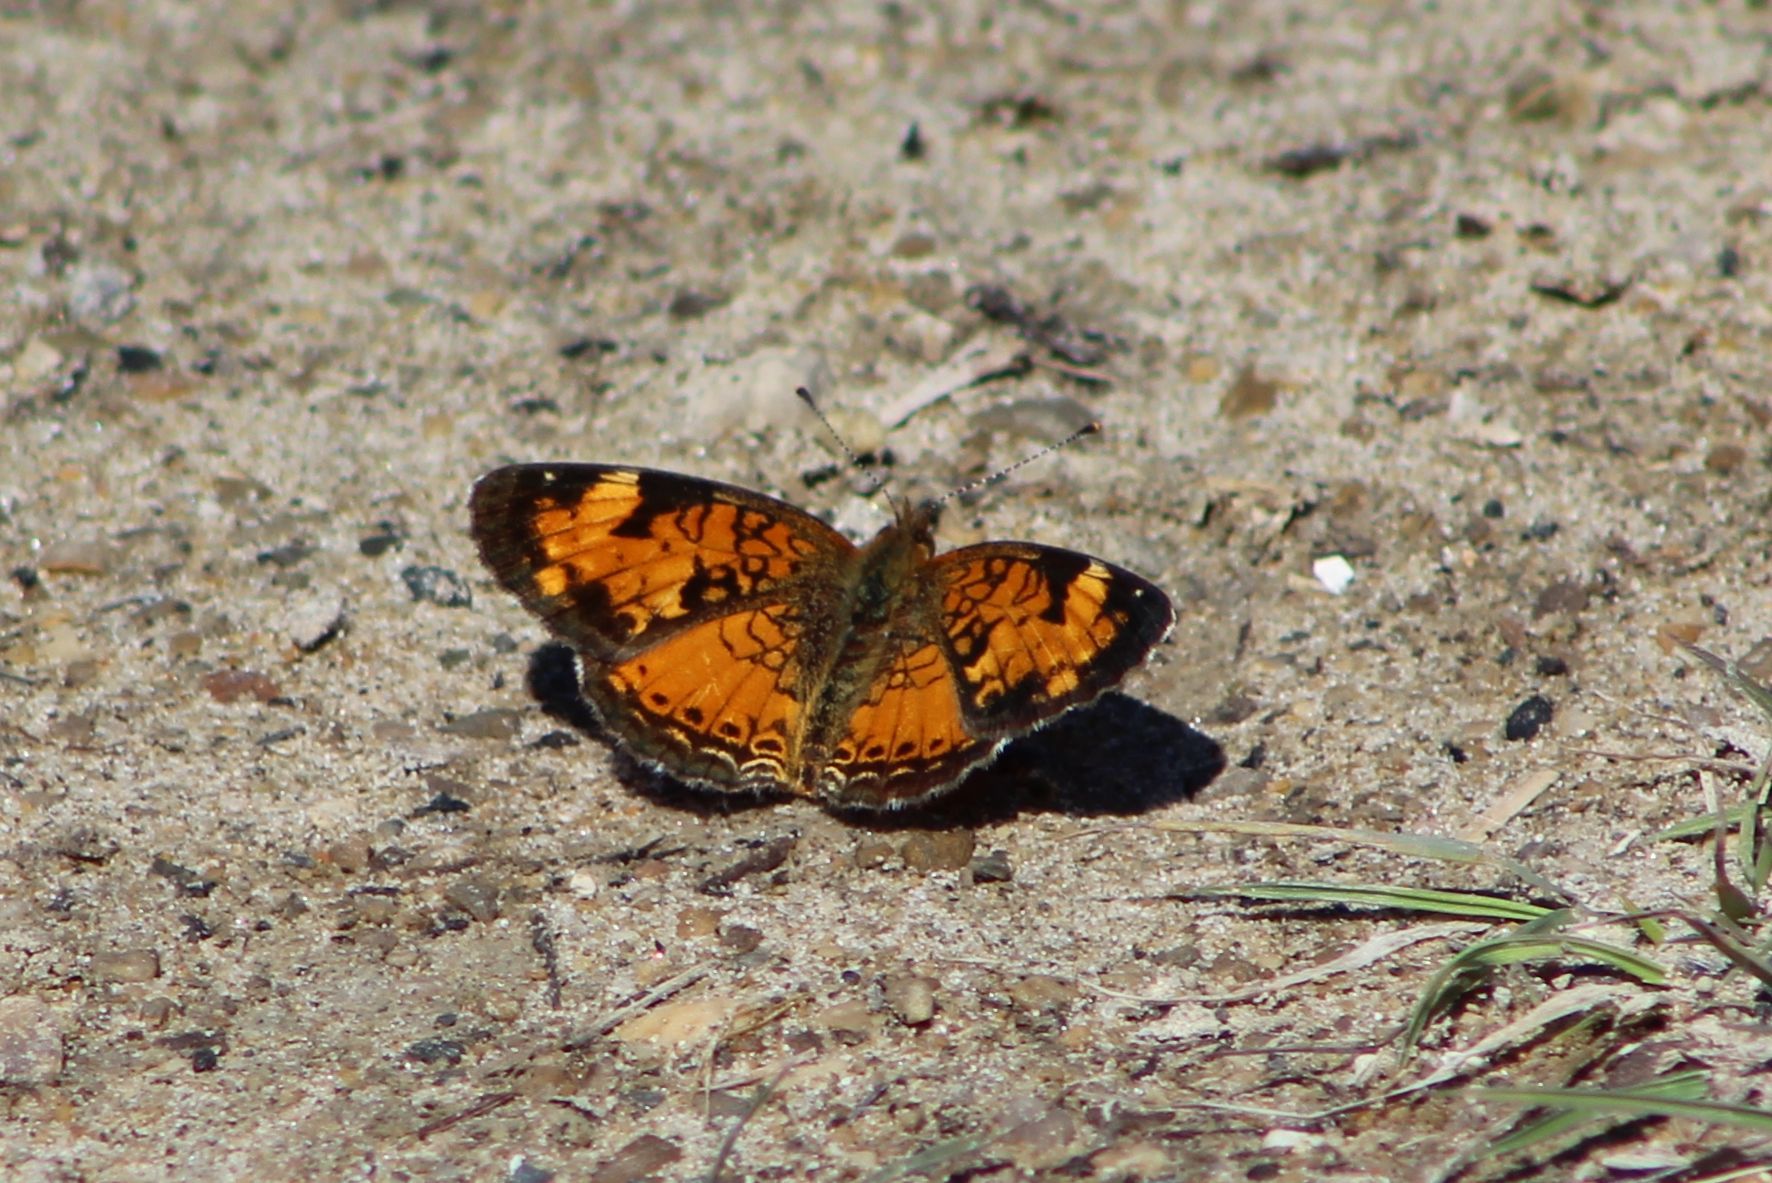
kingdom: Animalia
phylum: Arthropoda
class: Insecta
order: Lepidoptera
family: Nymphalidae
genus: Phyciodes
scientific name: Phyciodes tharos
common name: Pearl crescent
